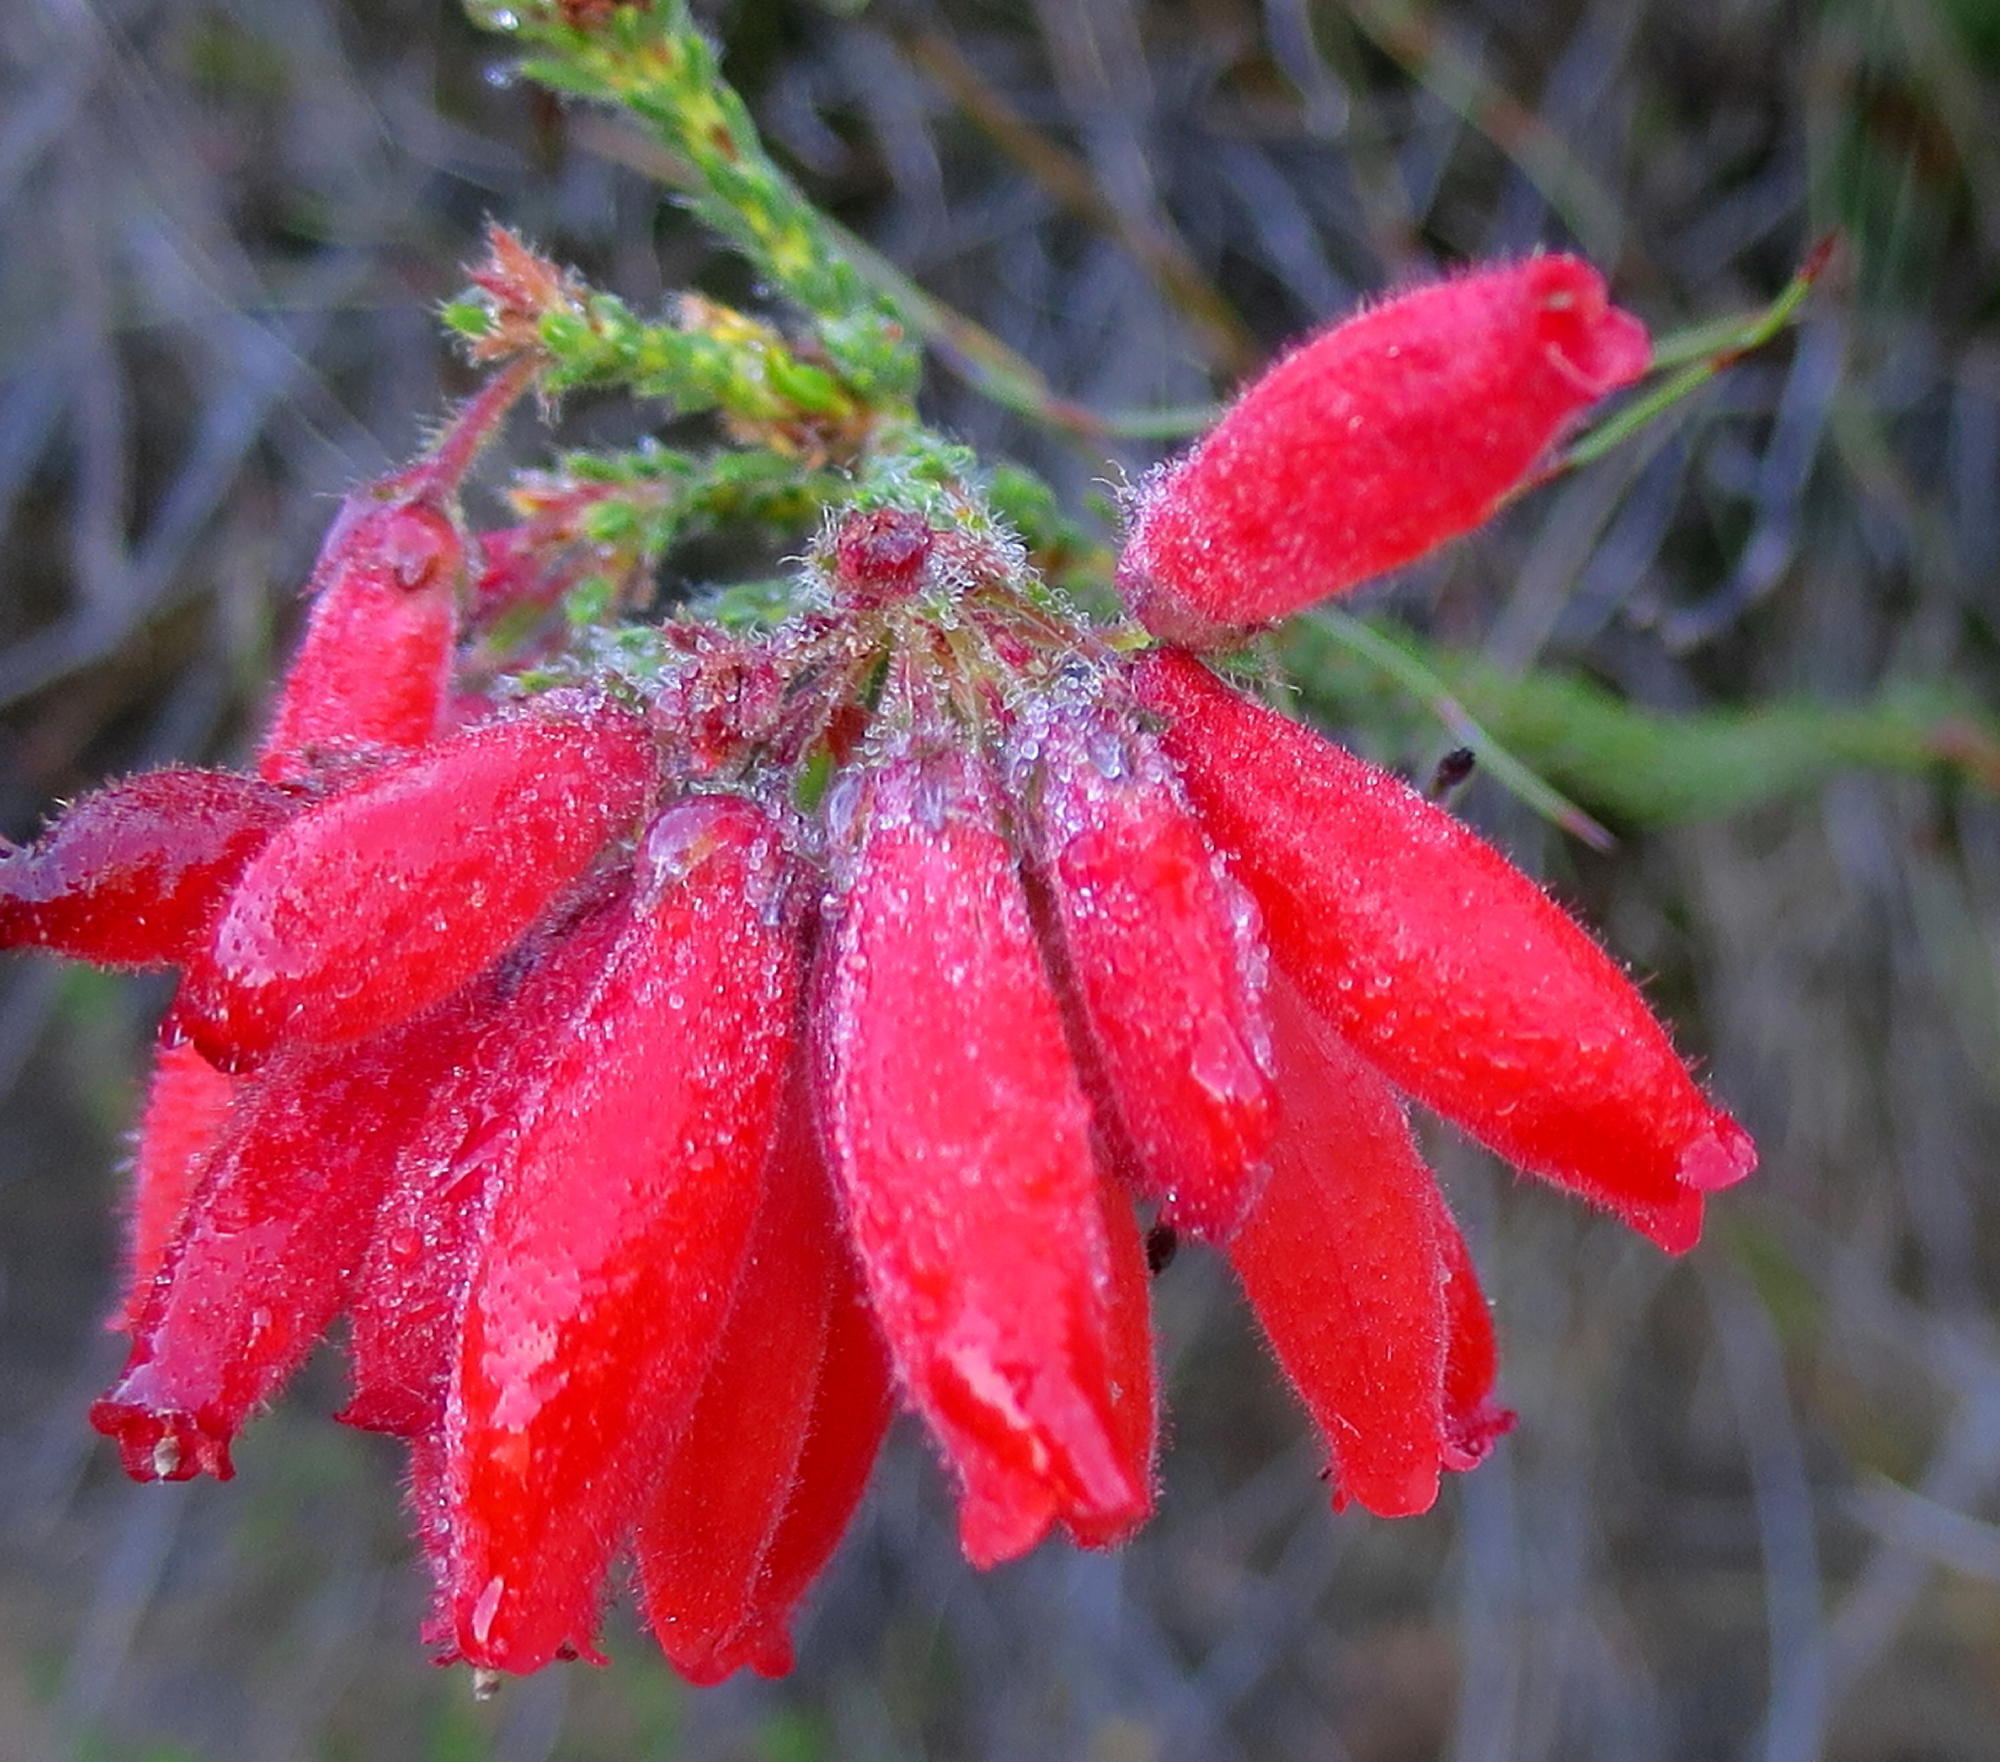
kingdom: Plantae
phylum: Tracheophyta
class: Magnoliopsida
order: Ericales
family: Ericaceae
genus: Erica
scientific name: Erica cerinthoides
